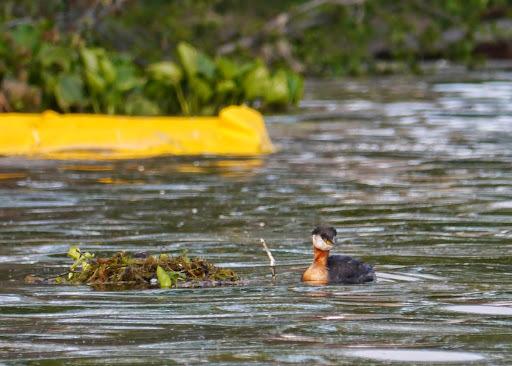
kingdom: Animalia
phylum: Chordata
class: Aves
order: Podicipediformes
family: Podicipedidae
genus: Podiceps
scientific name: Podiceps grisegena
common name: Red-necked grebe
